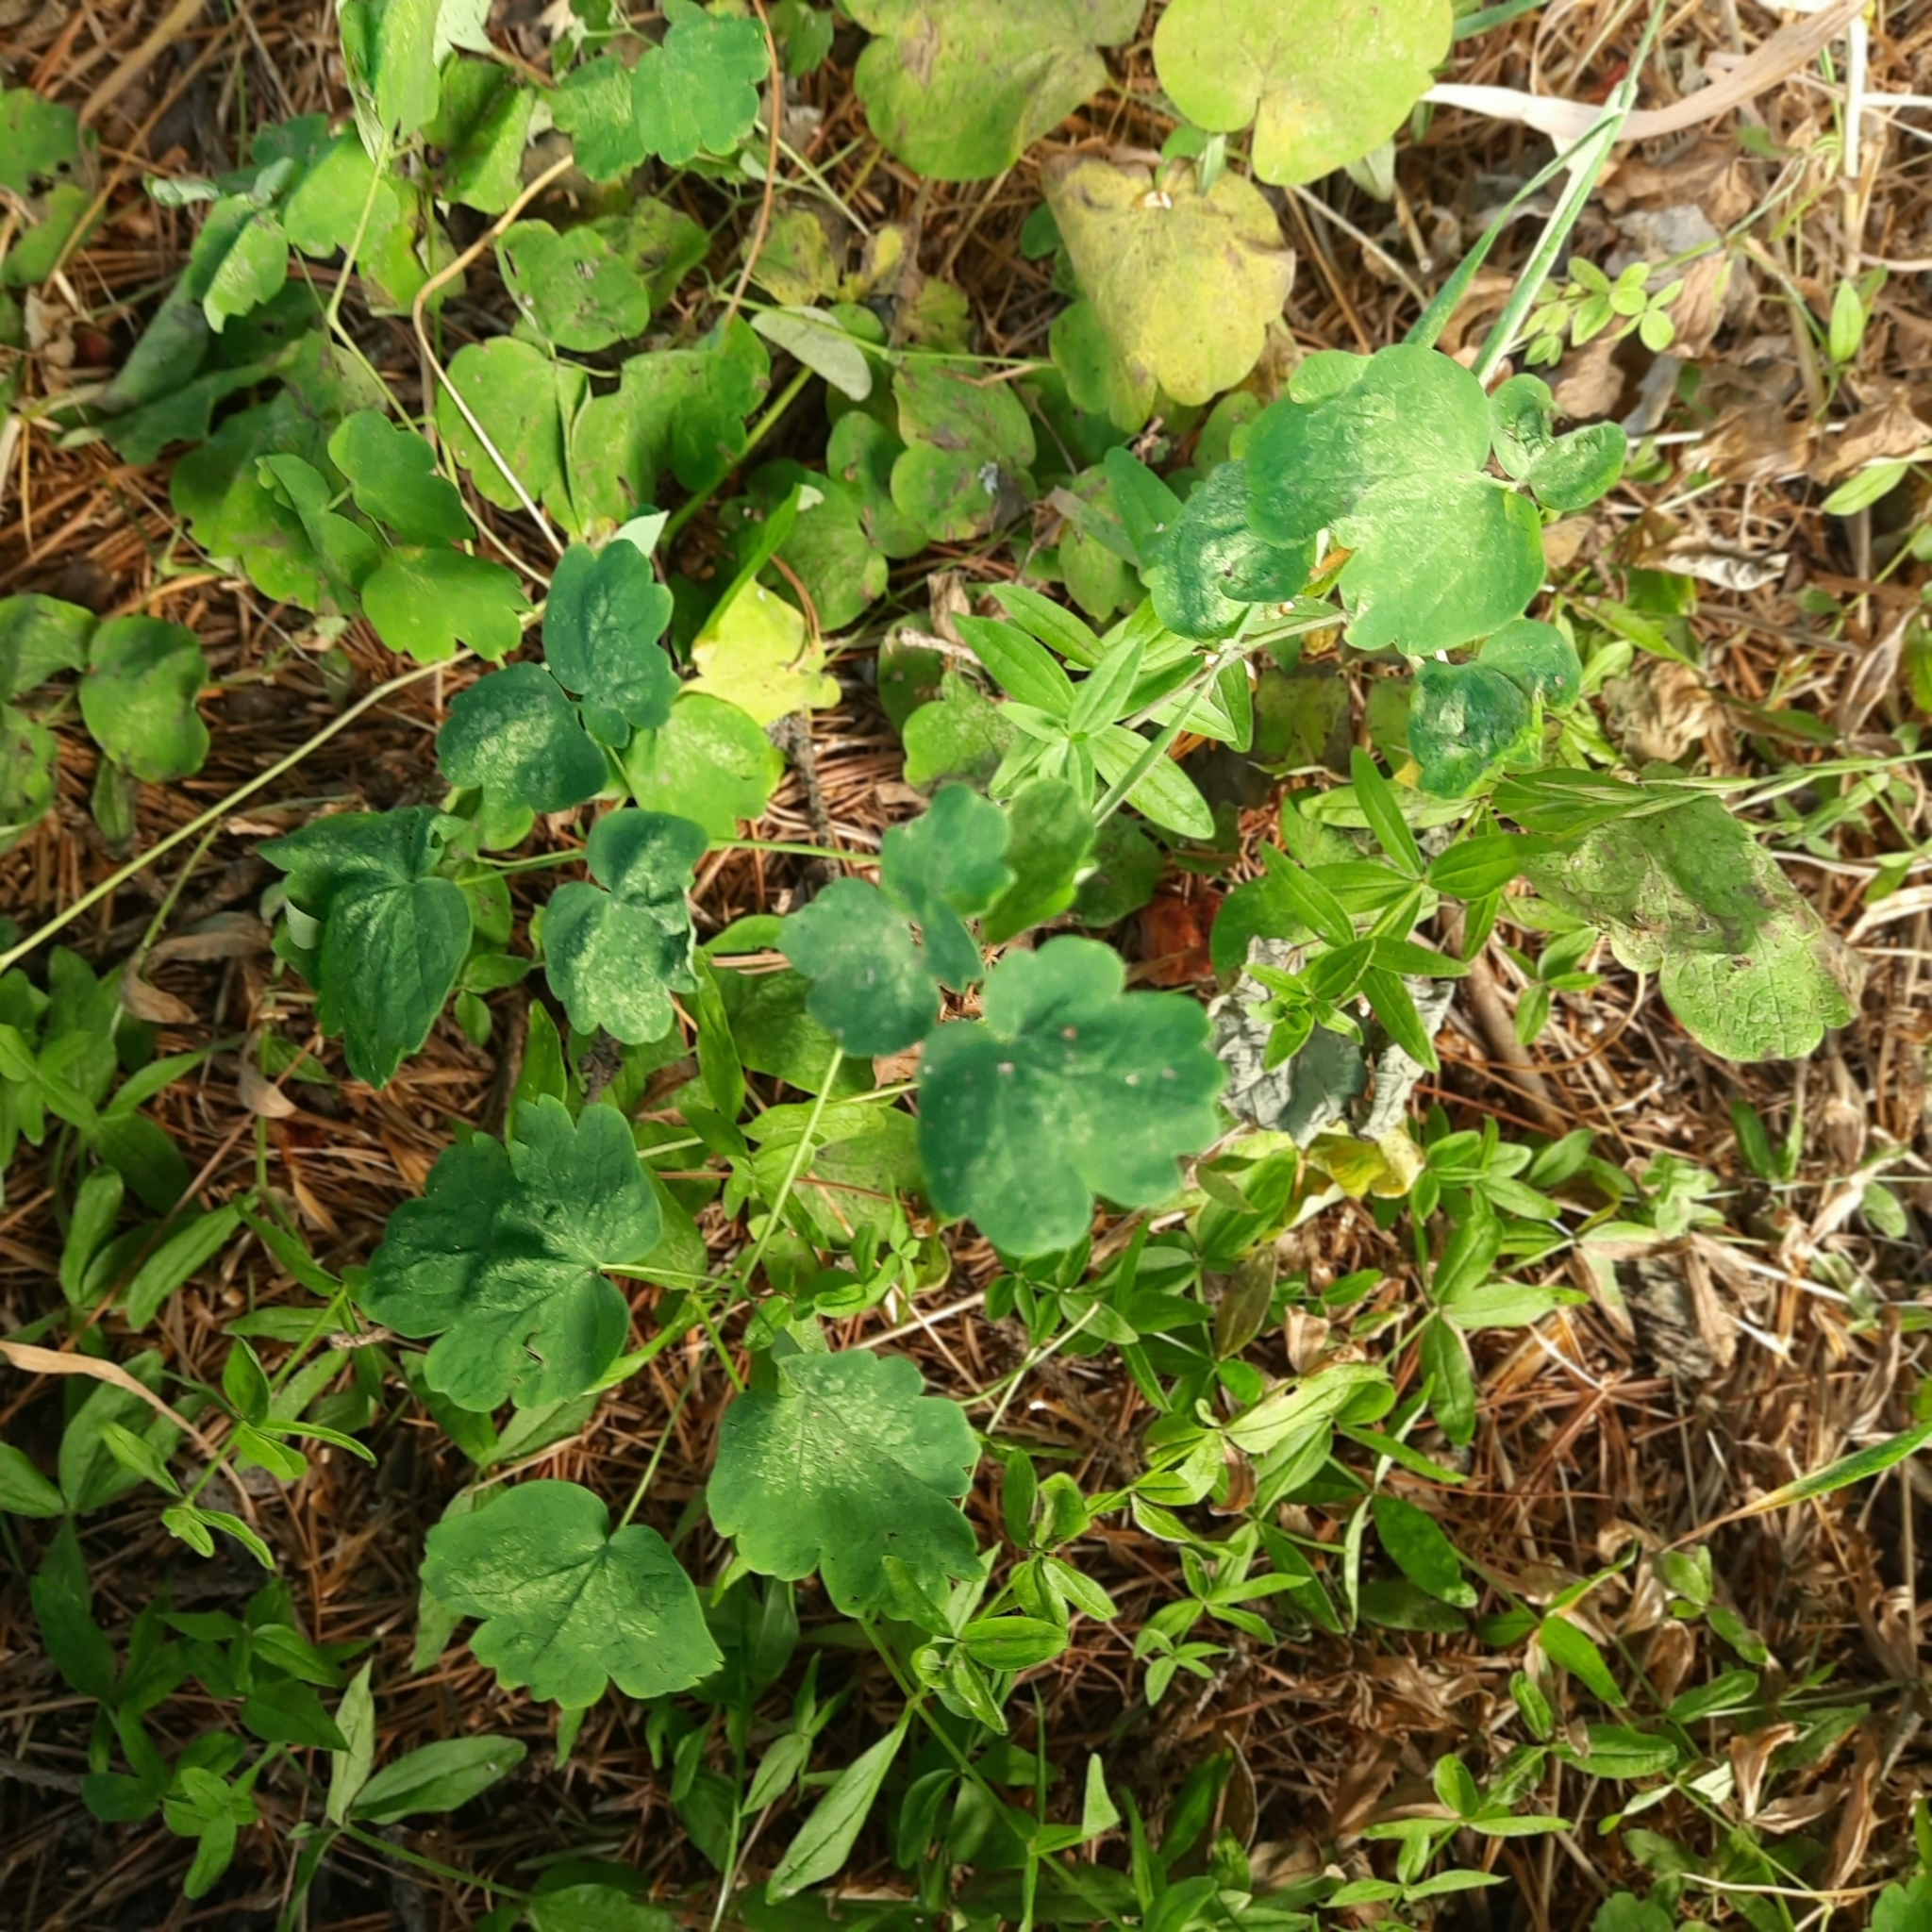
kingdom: Plantae
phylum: Tracheophyta
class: Magnoliopsida
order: Ranunculales
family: Ranunculaceae
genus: Thalictrum
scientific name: Thalictrum minus
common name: Lesser meadow-rue
